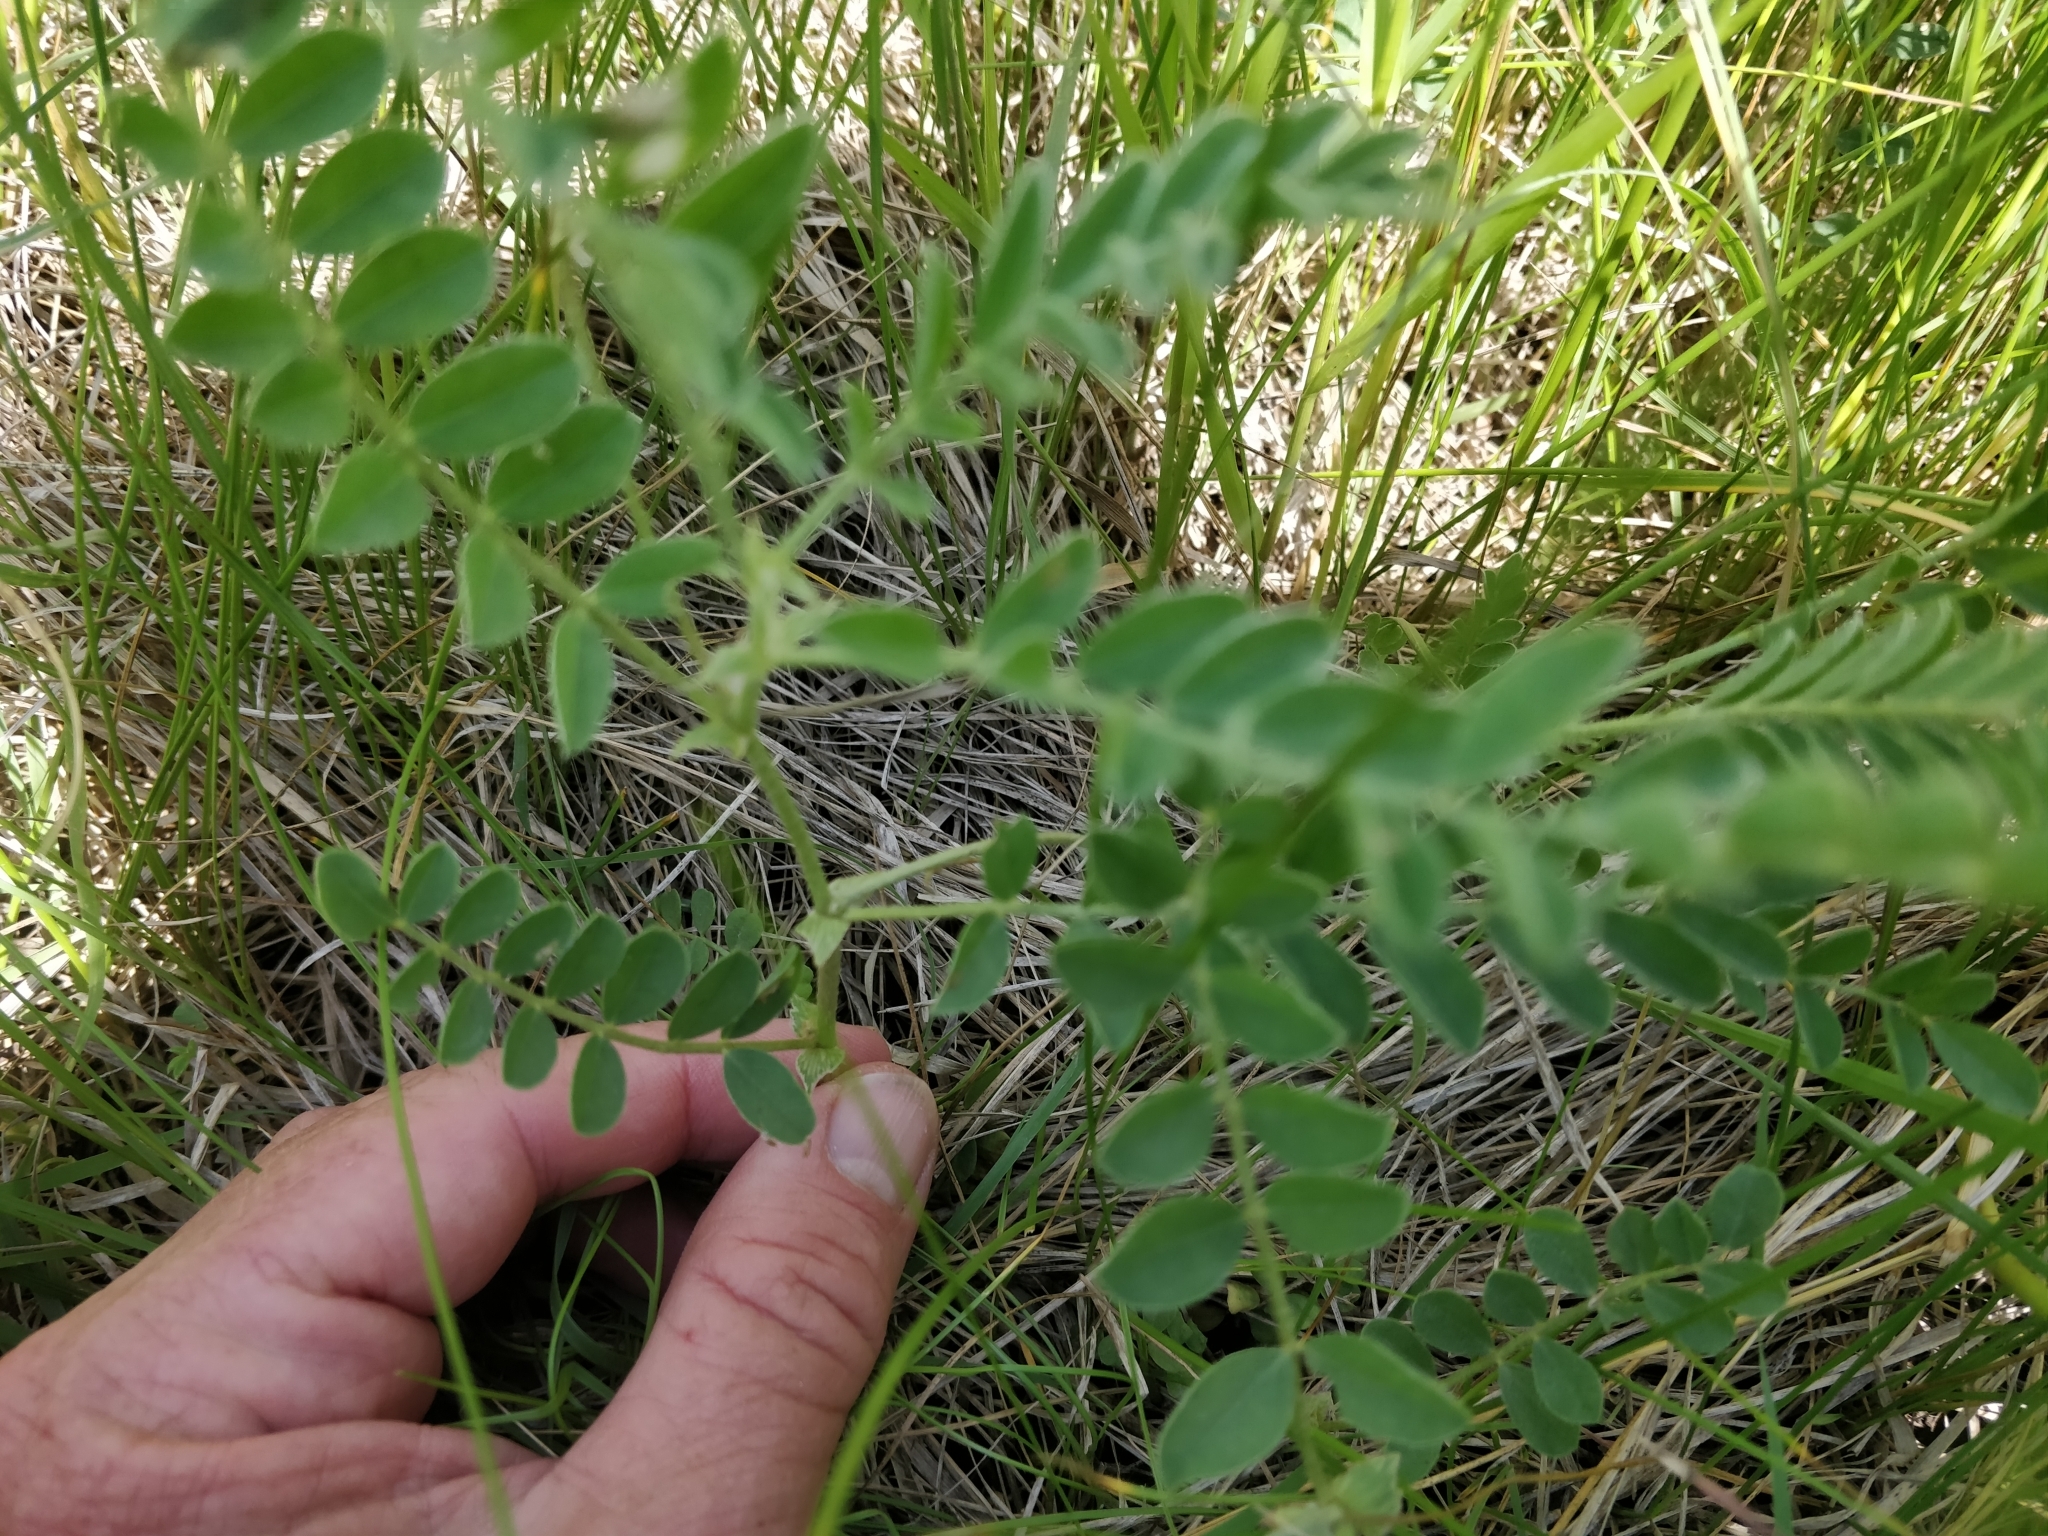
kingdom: Plantae
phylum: Tracheophyta
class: Magnoliopsida
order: Fabales
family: Fabaceae
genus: Astragalus
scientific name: Astragalus plattensis
